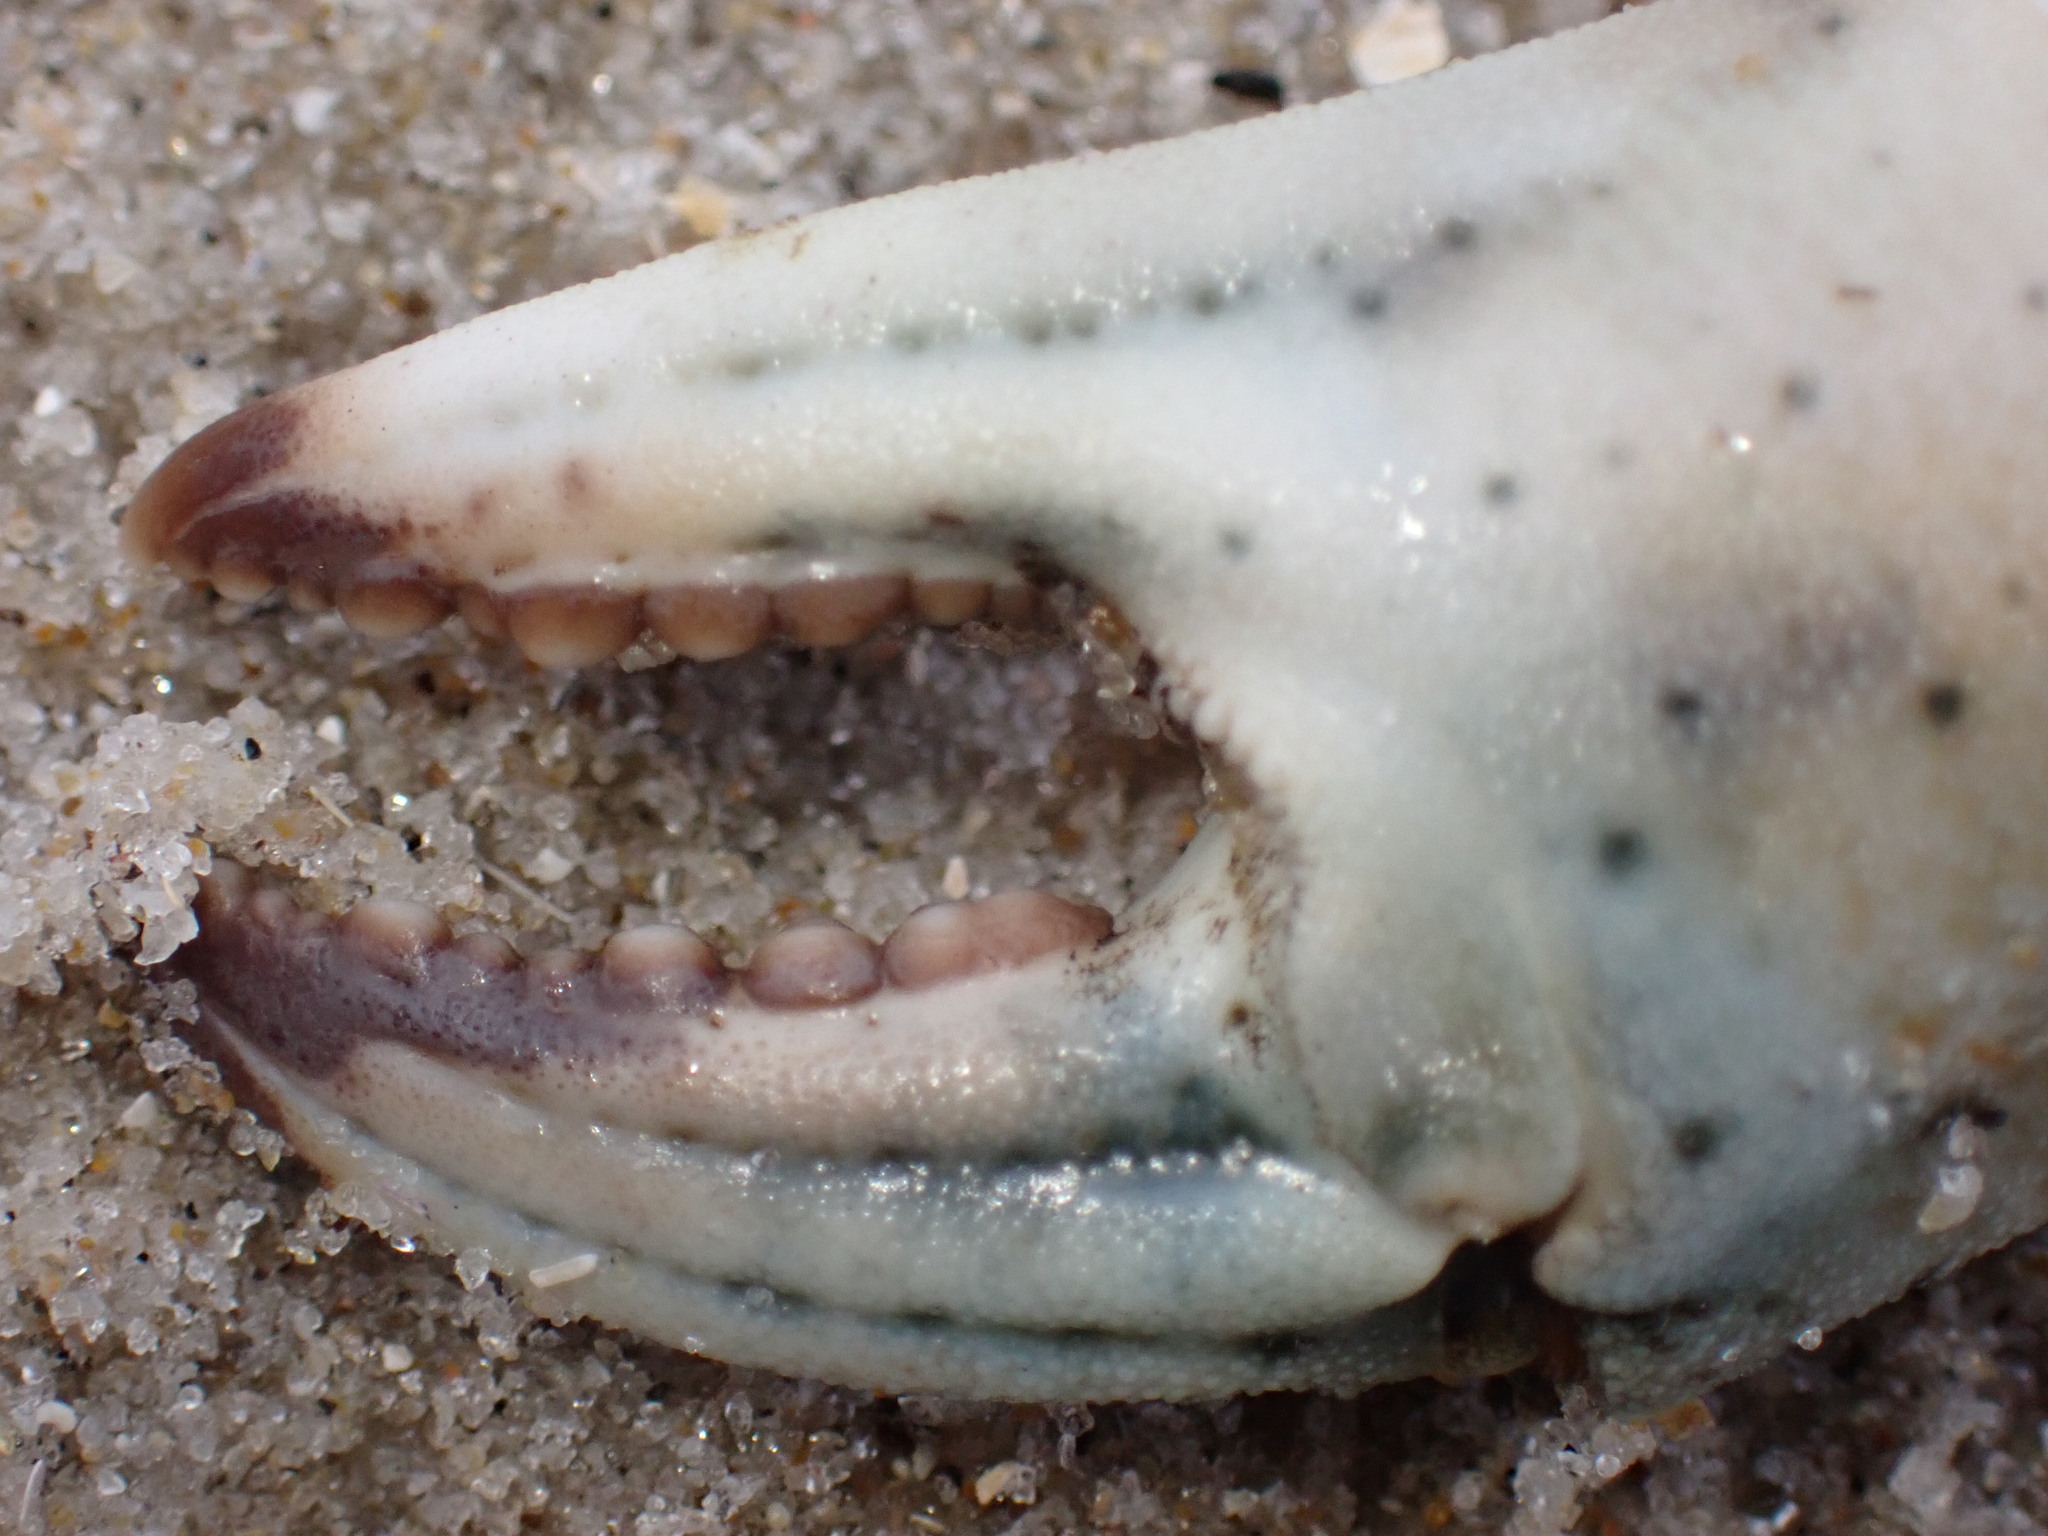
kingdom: Animalia
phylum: Arthropoda
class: Malacostraca
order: Decapoda
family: Carcinidae
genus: Carcinus
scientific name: Carcinus maenas
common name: European green crab
